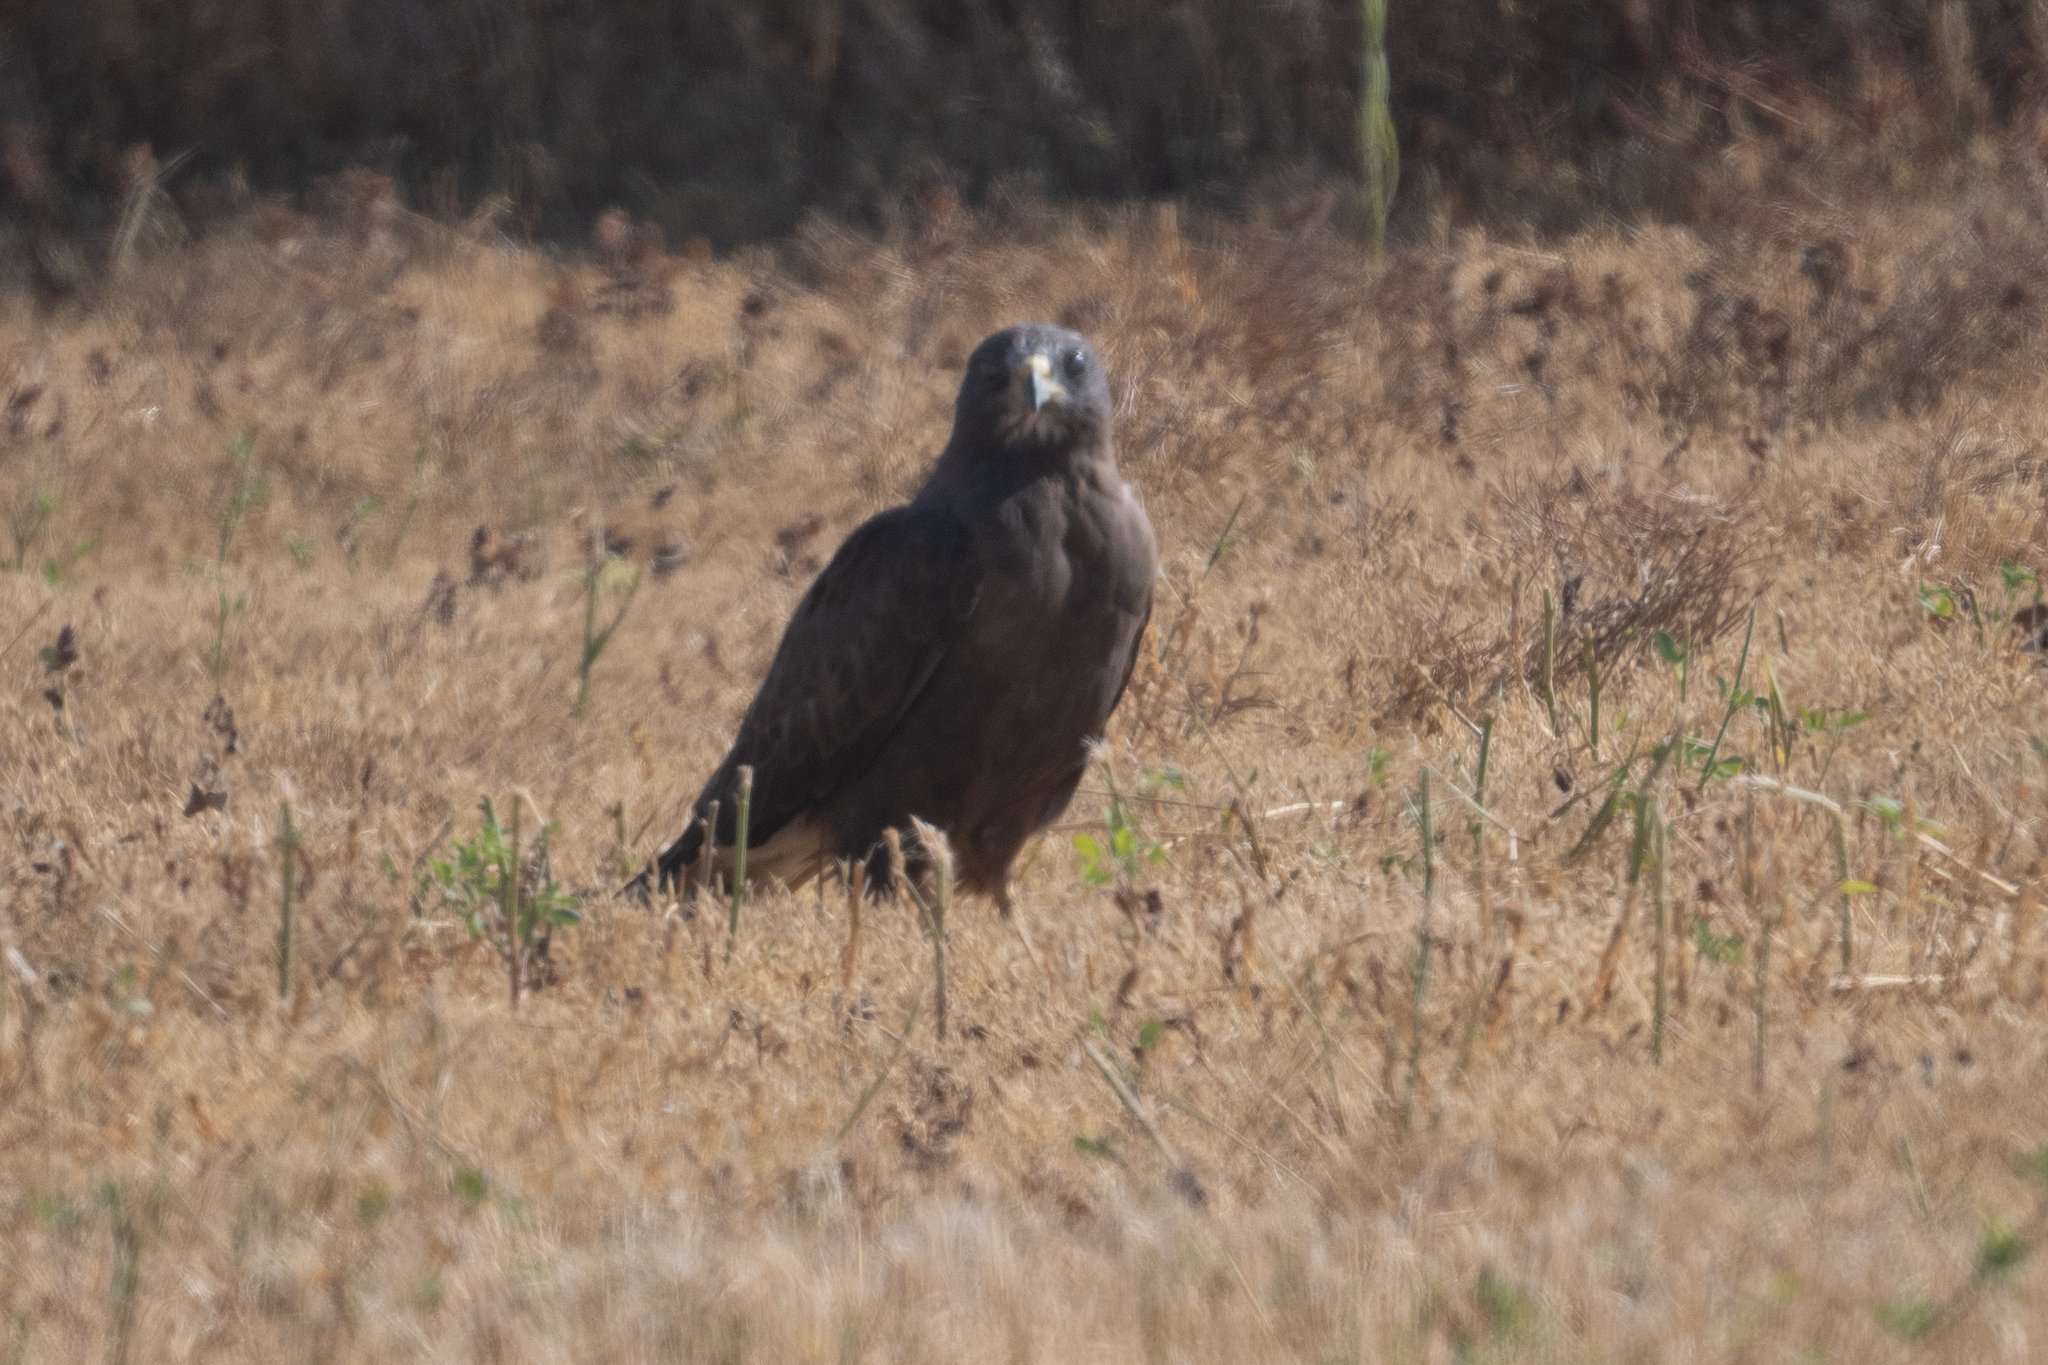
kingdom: Animalia
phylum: Chordata
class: Aves
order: Accipitriformes
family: Accipitridae
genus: Buteo
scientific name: Buteo swainsoni
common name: Swainson's hawk
